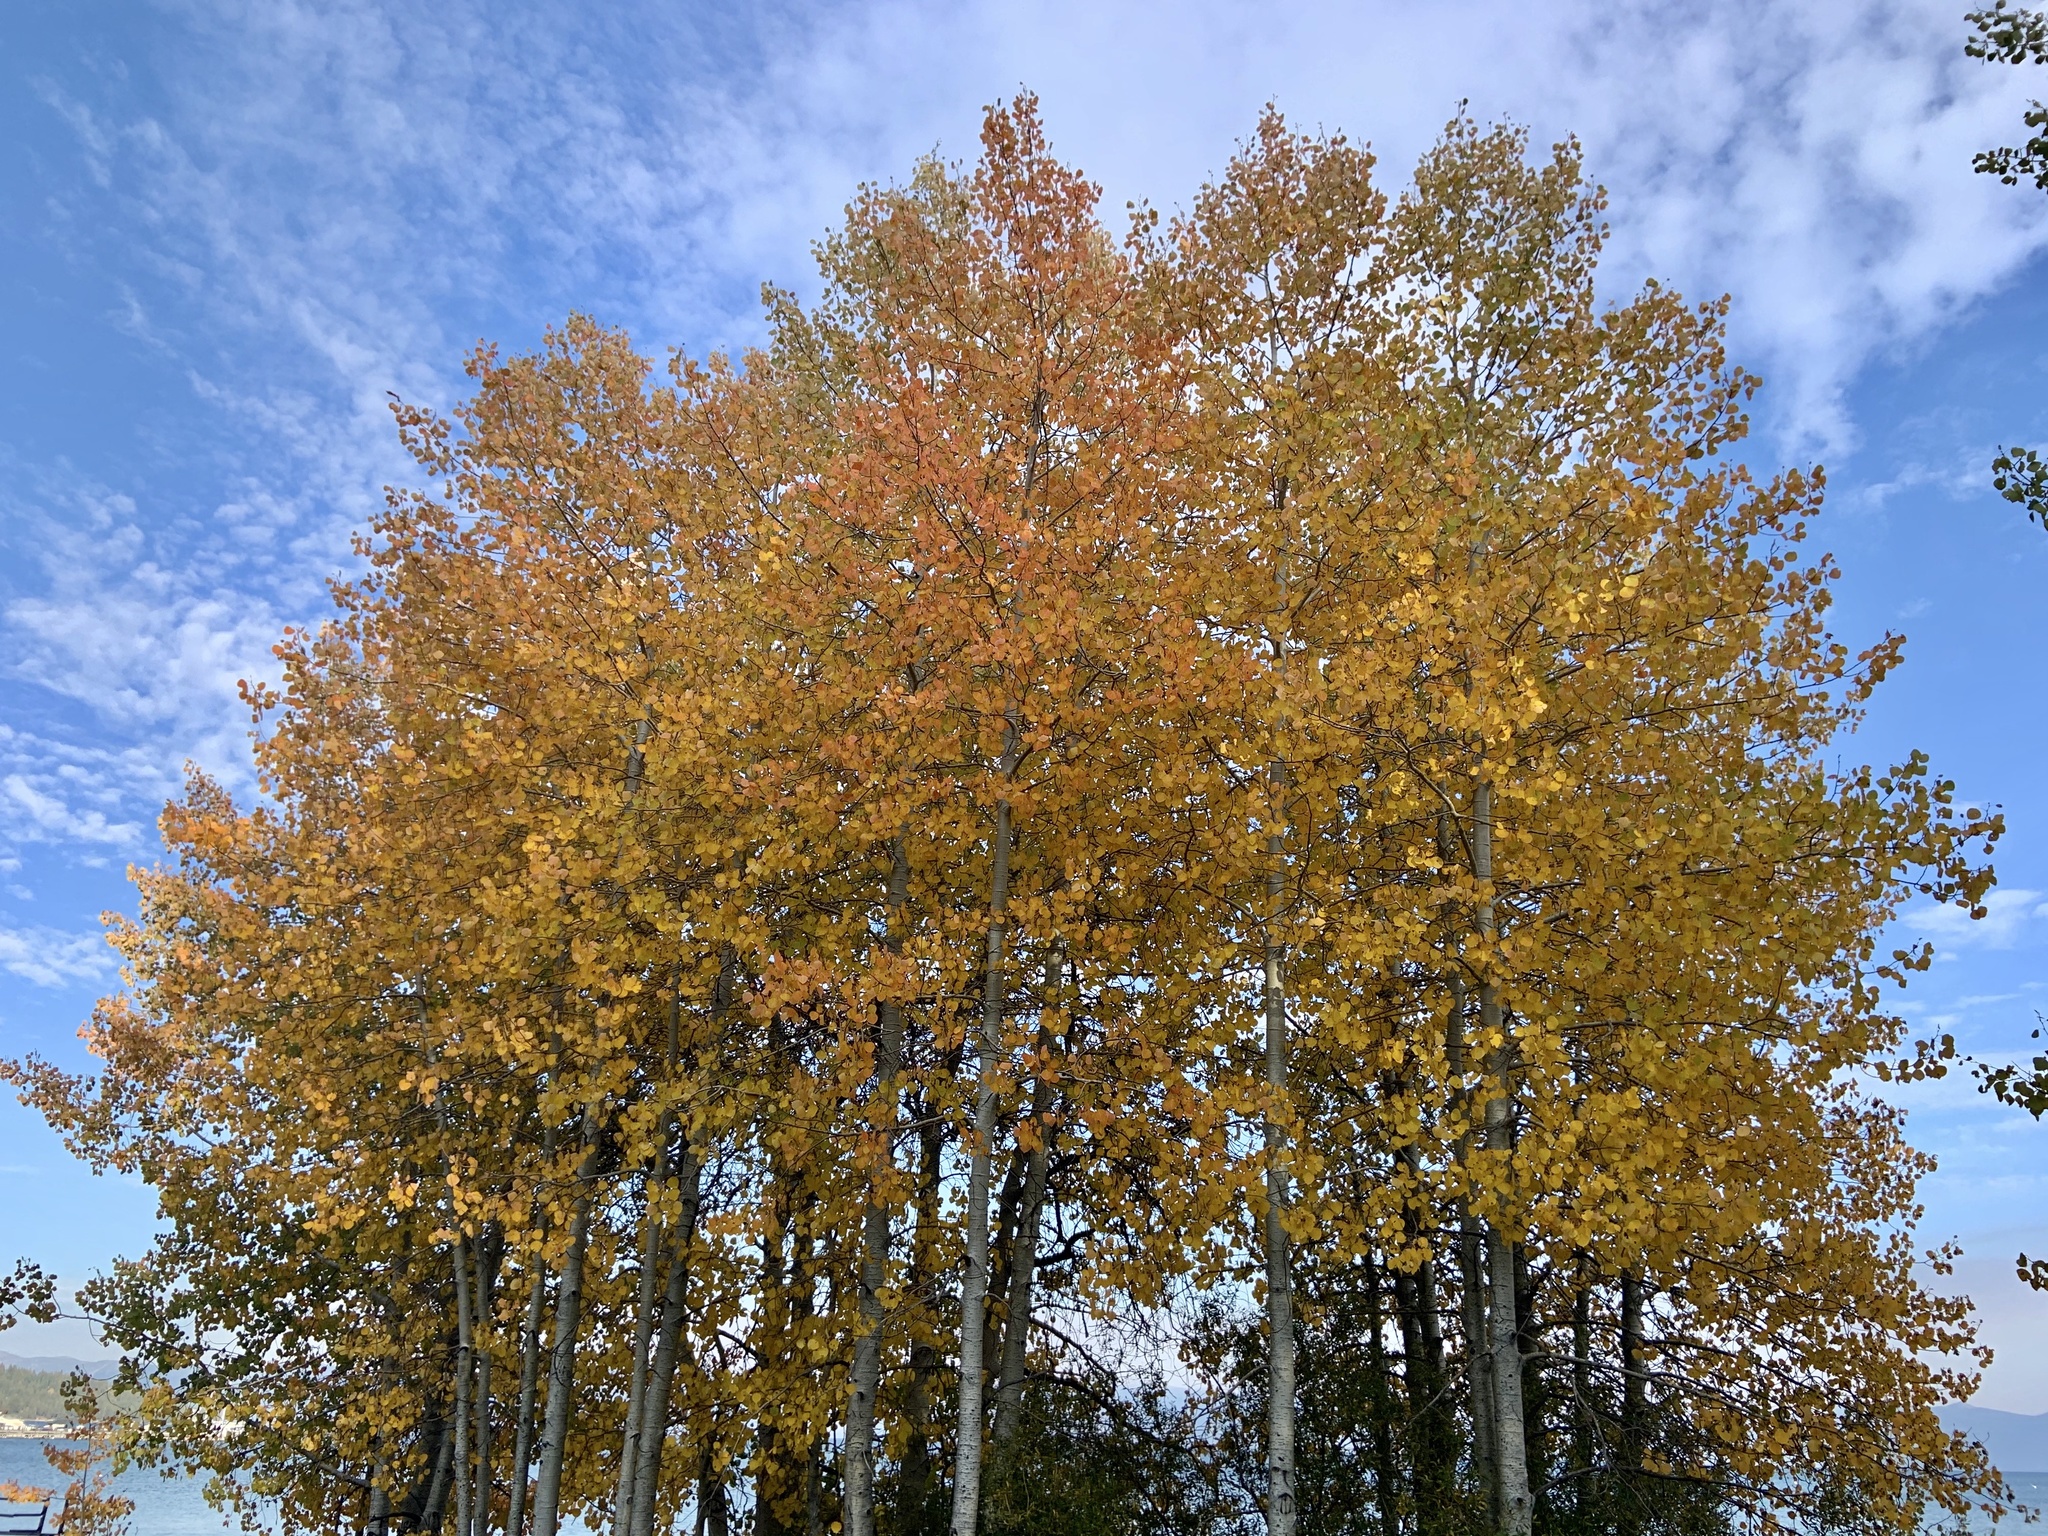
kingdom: Plantae
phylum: Tracheophyta
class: Magnoliopsida
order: Malpighiales
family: Salicaceae
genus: Populus
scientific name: Populus tremuloides
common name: Quaking aspen
